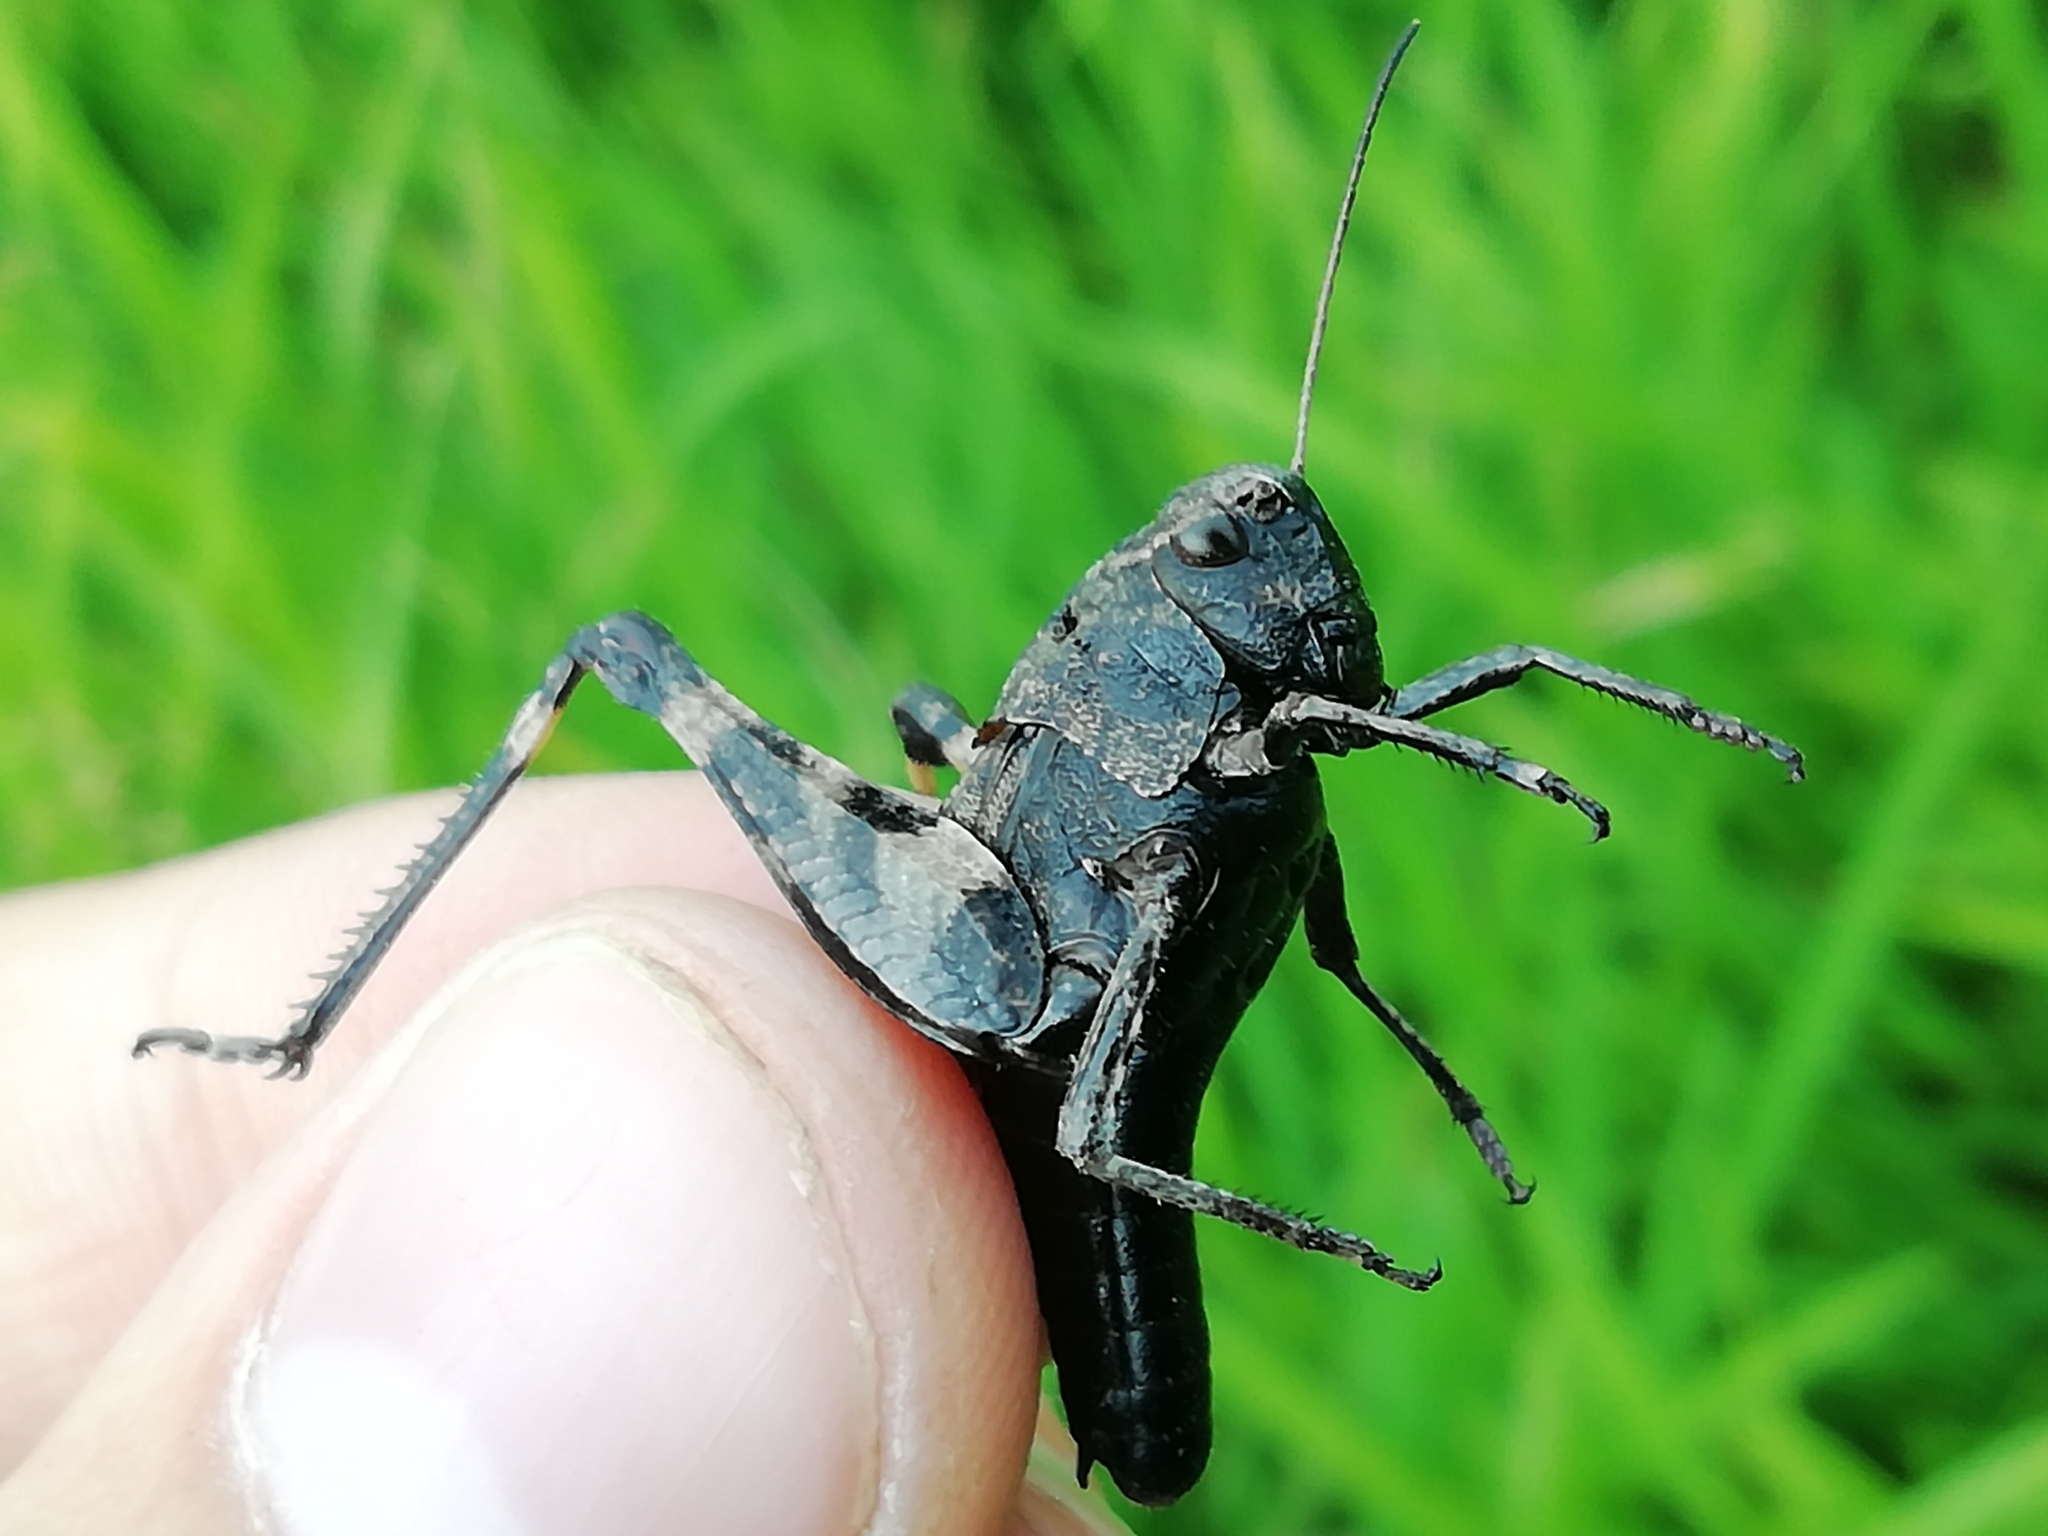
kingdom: Animalia
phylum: Arthropoda
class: Insecta
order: Orthoptera
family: Acrididae
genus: Psophus
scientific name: Psophus stridulus
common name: Rattle grasshopper
